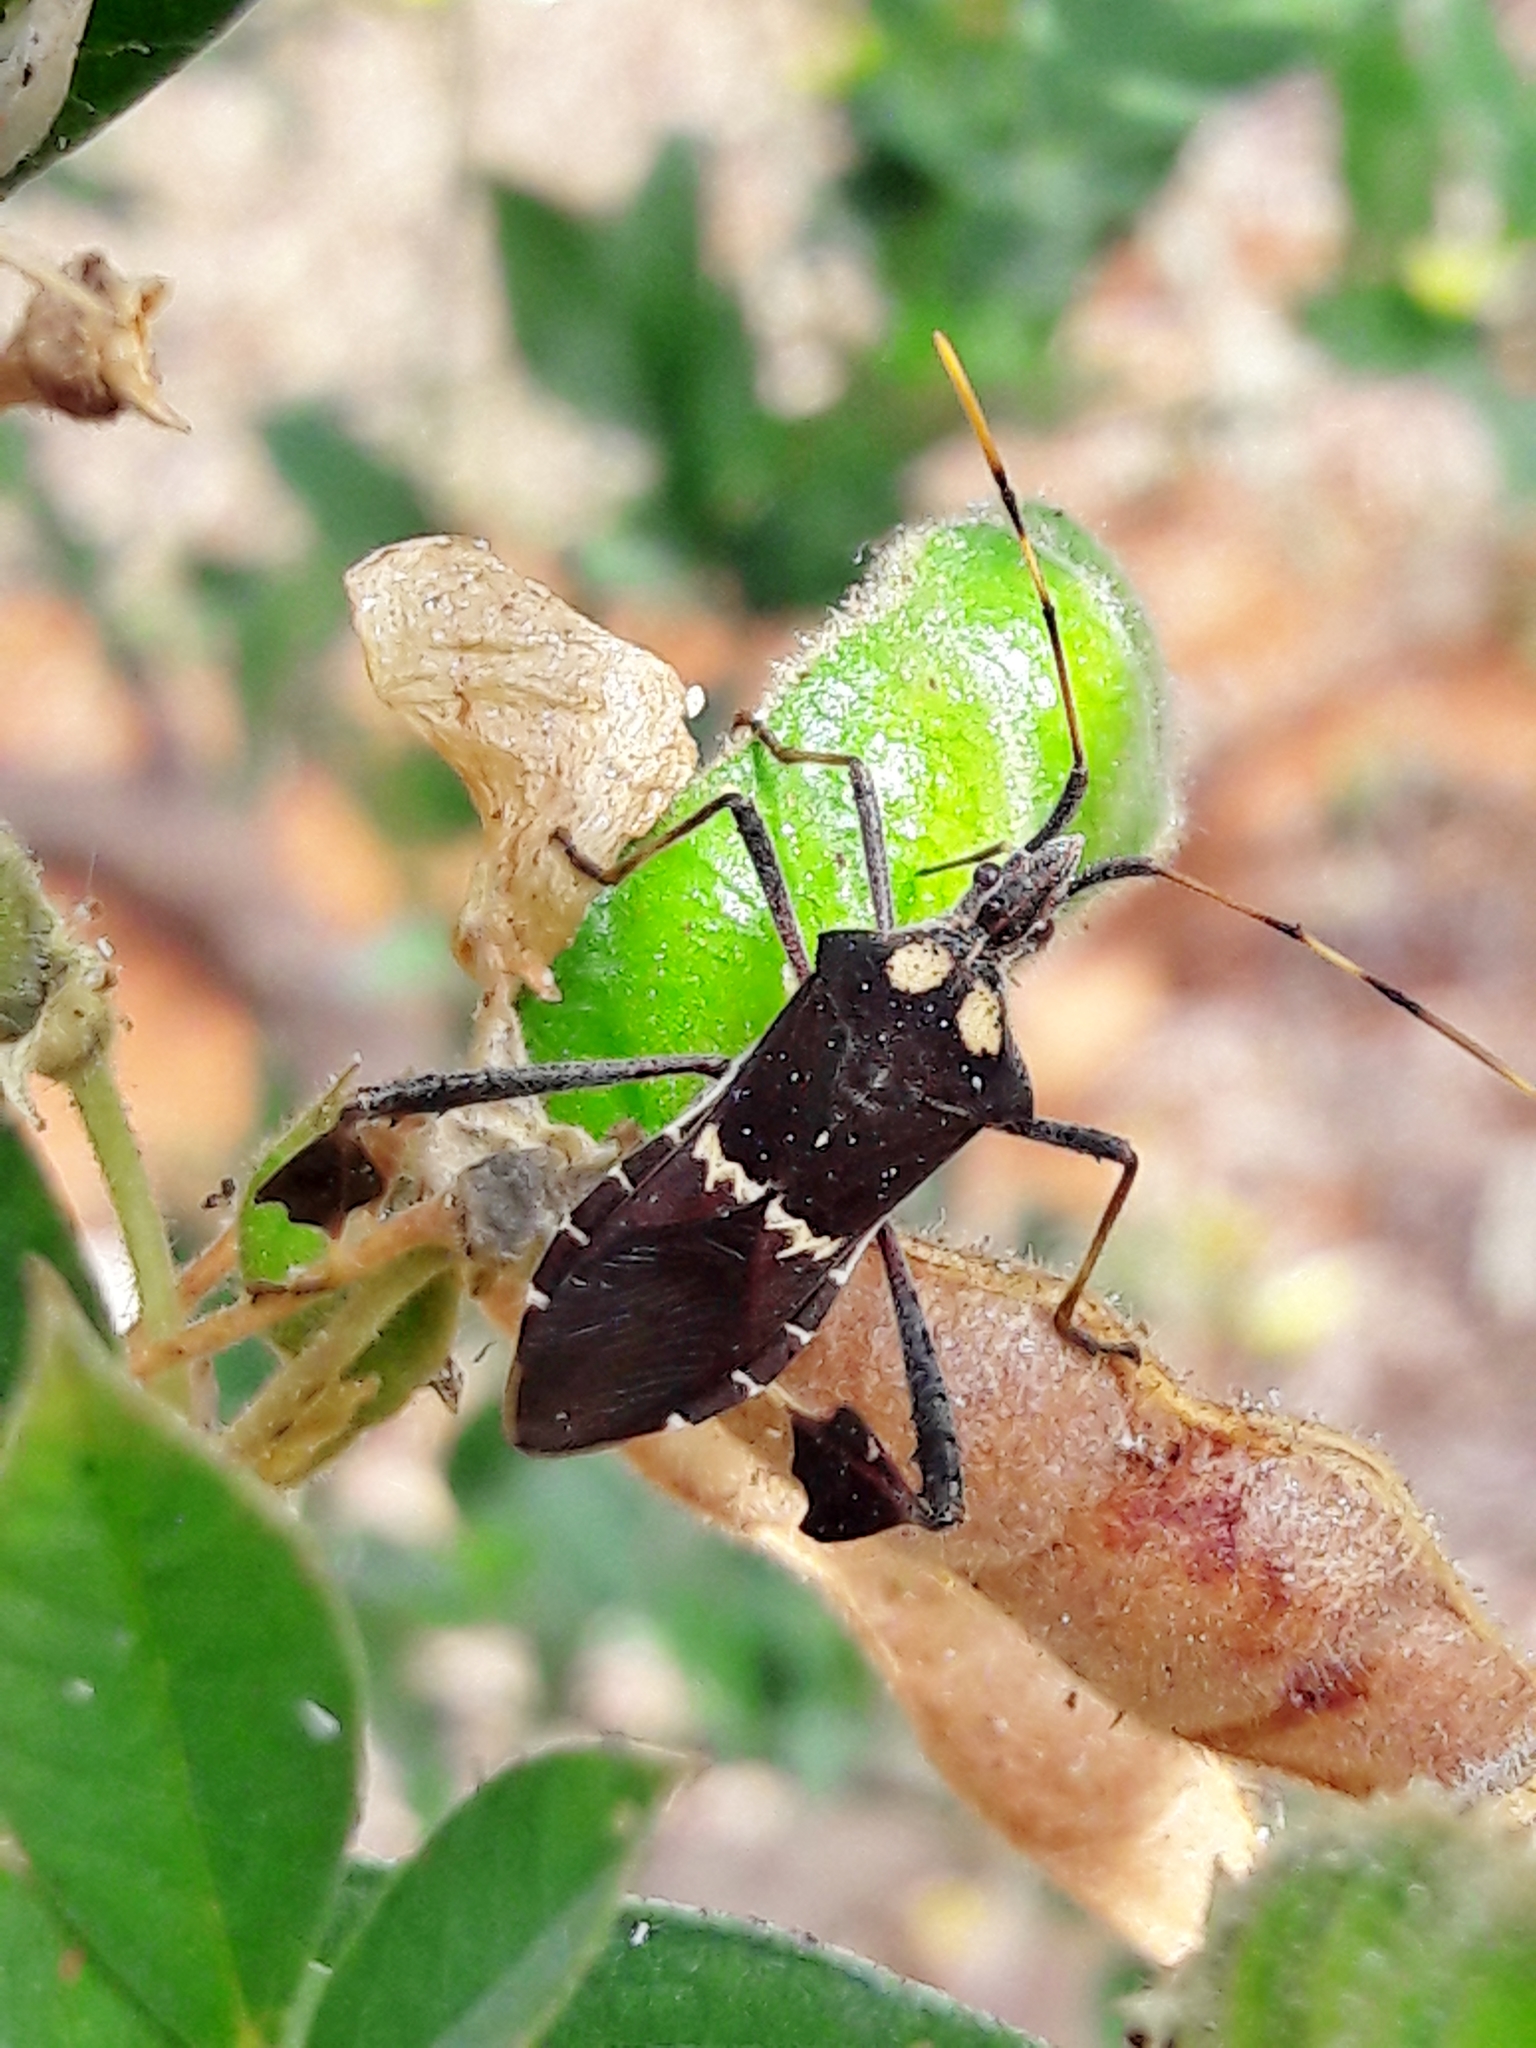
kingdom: Animalia
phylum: Arthropoda
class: Insecta
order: Hemiptera
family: Coreidae
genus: Leptoglossus
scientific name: Leptoglossus zonatus
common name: Large-legged bug
